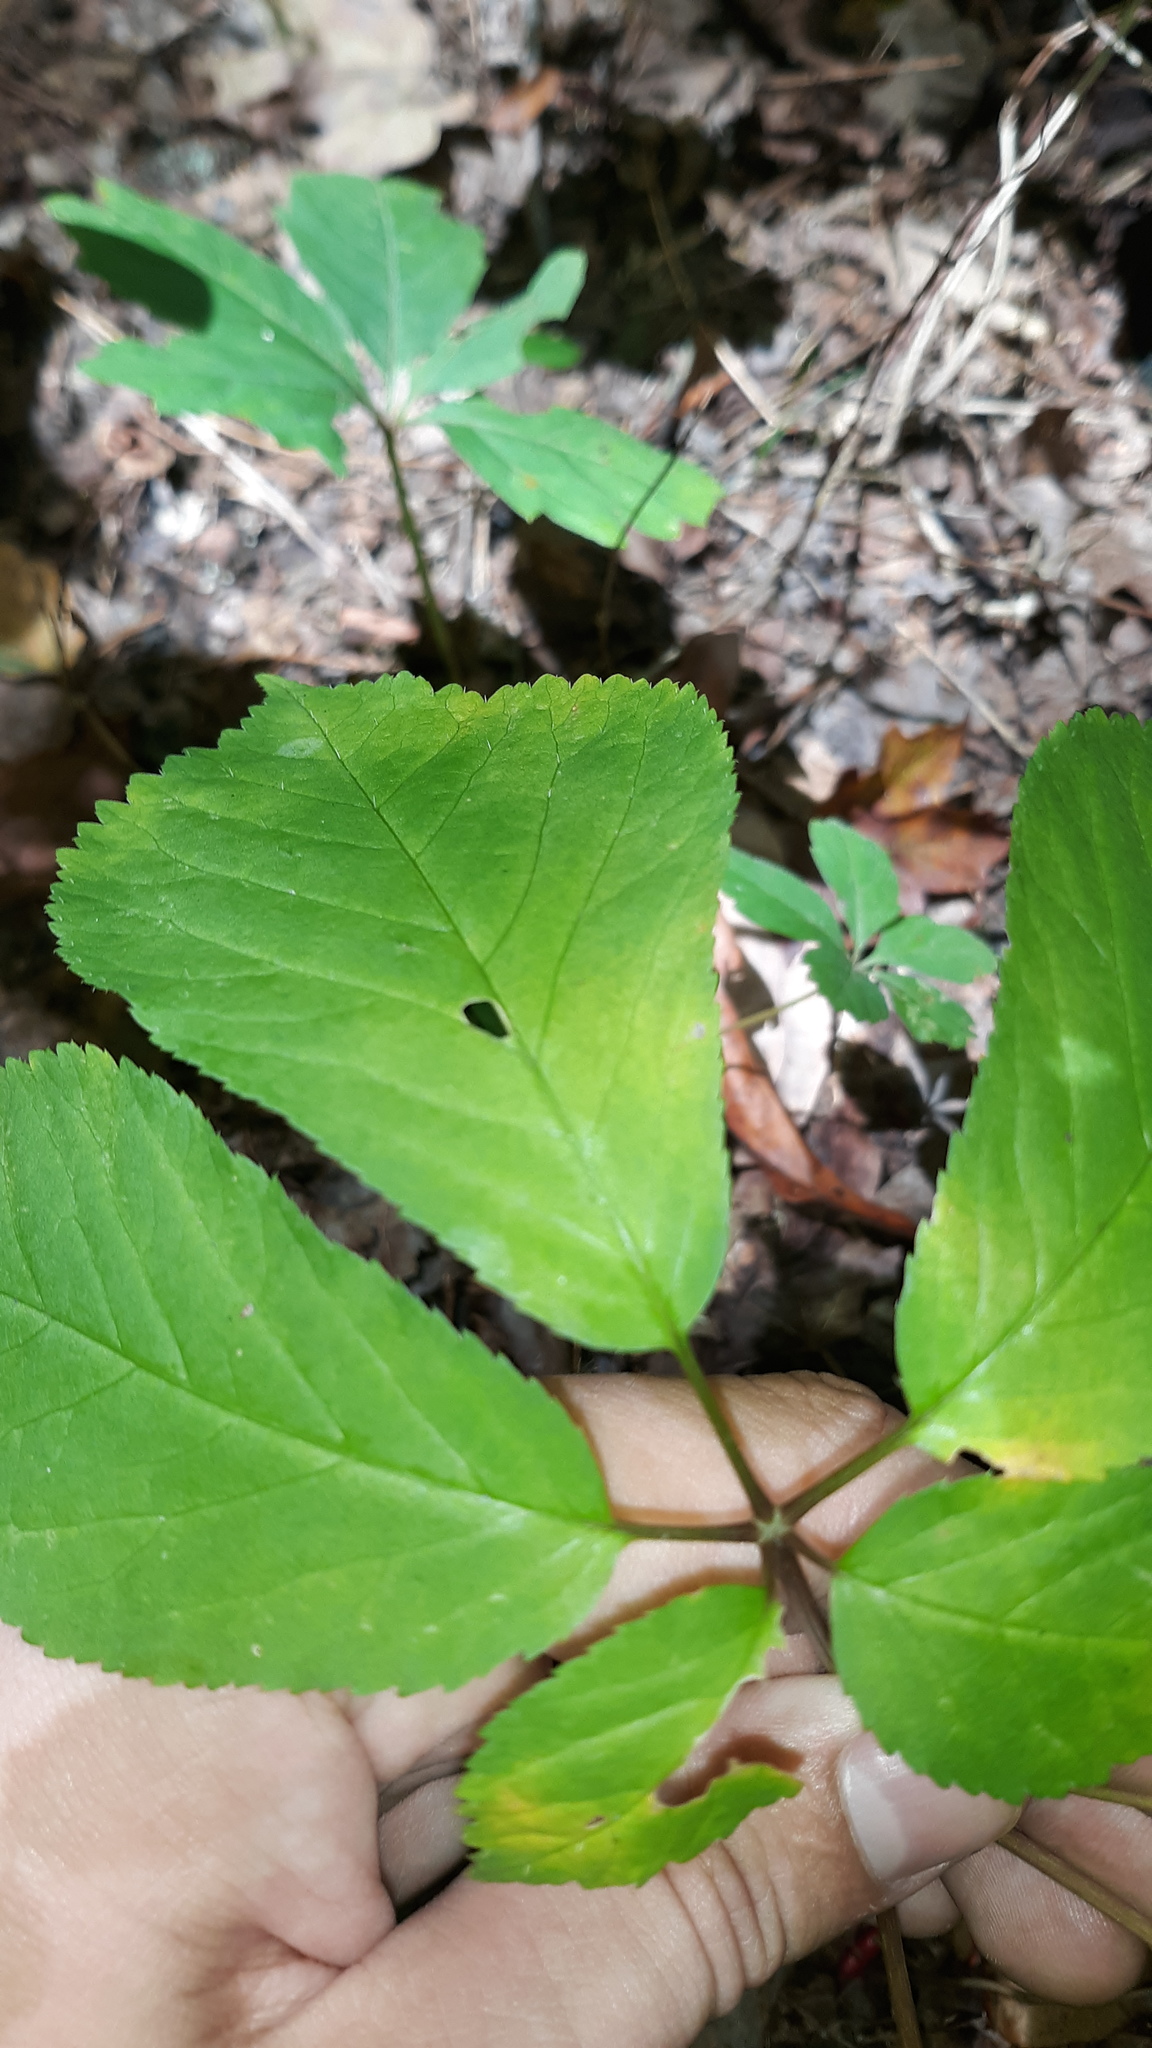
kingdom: Plantae
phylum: Tracheophyta
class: Magnoliopsida
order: Apiales
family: Araliaceae
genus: Panax
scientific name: Panax quinquefolius
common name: American ginseng
